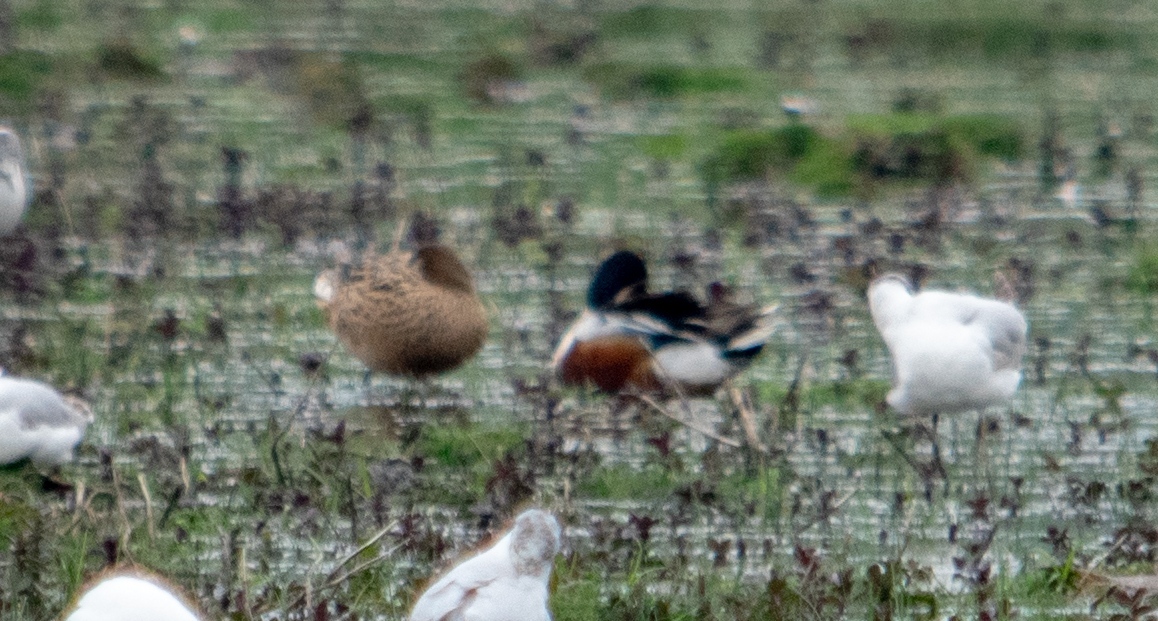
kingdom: Animalia
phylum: Chordata
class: Aves
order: Anseriformes
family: Anatidae
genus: Spatula
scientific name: Spatula clypeata
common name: Northern shoveler
